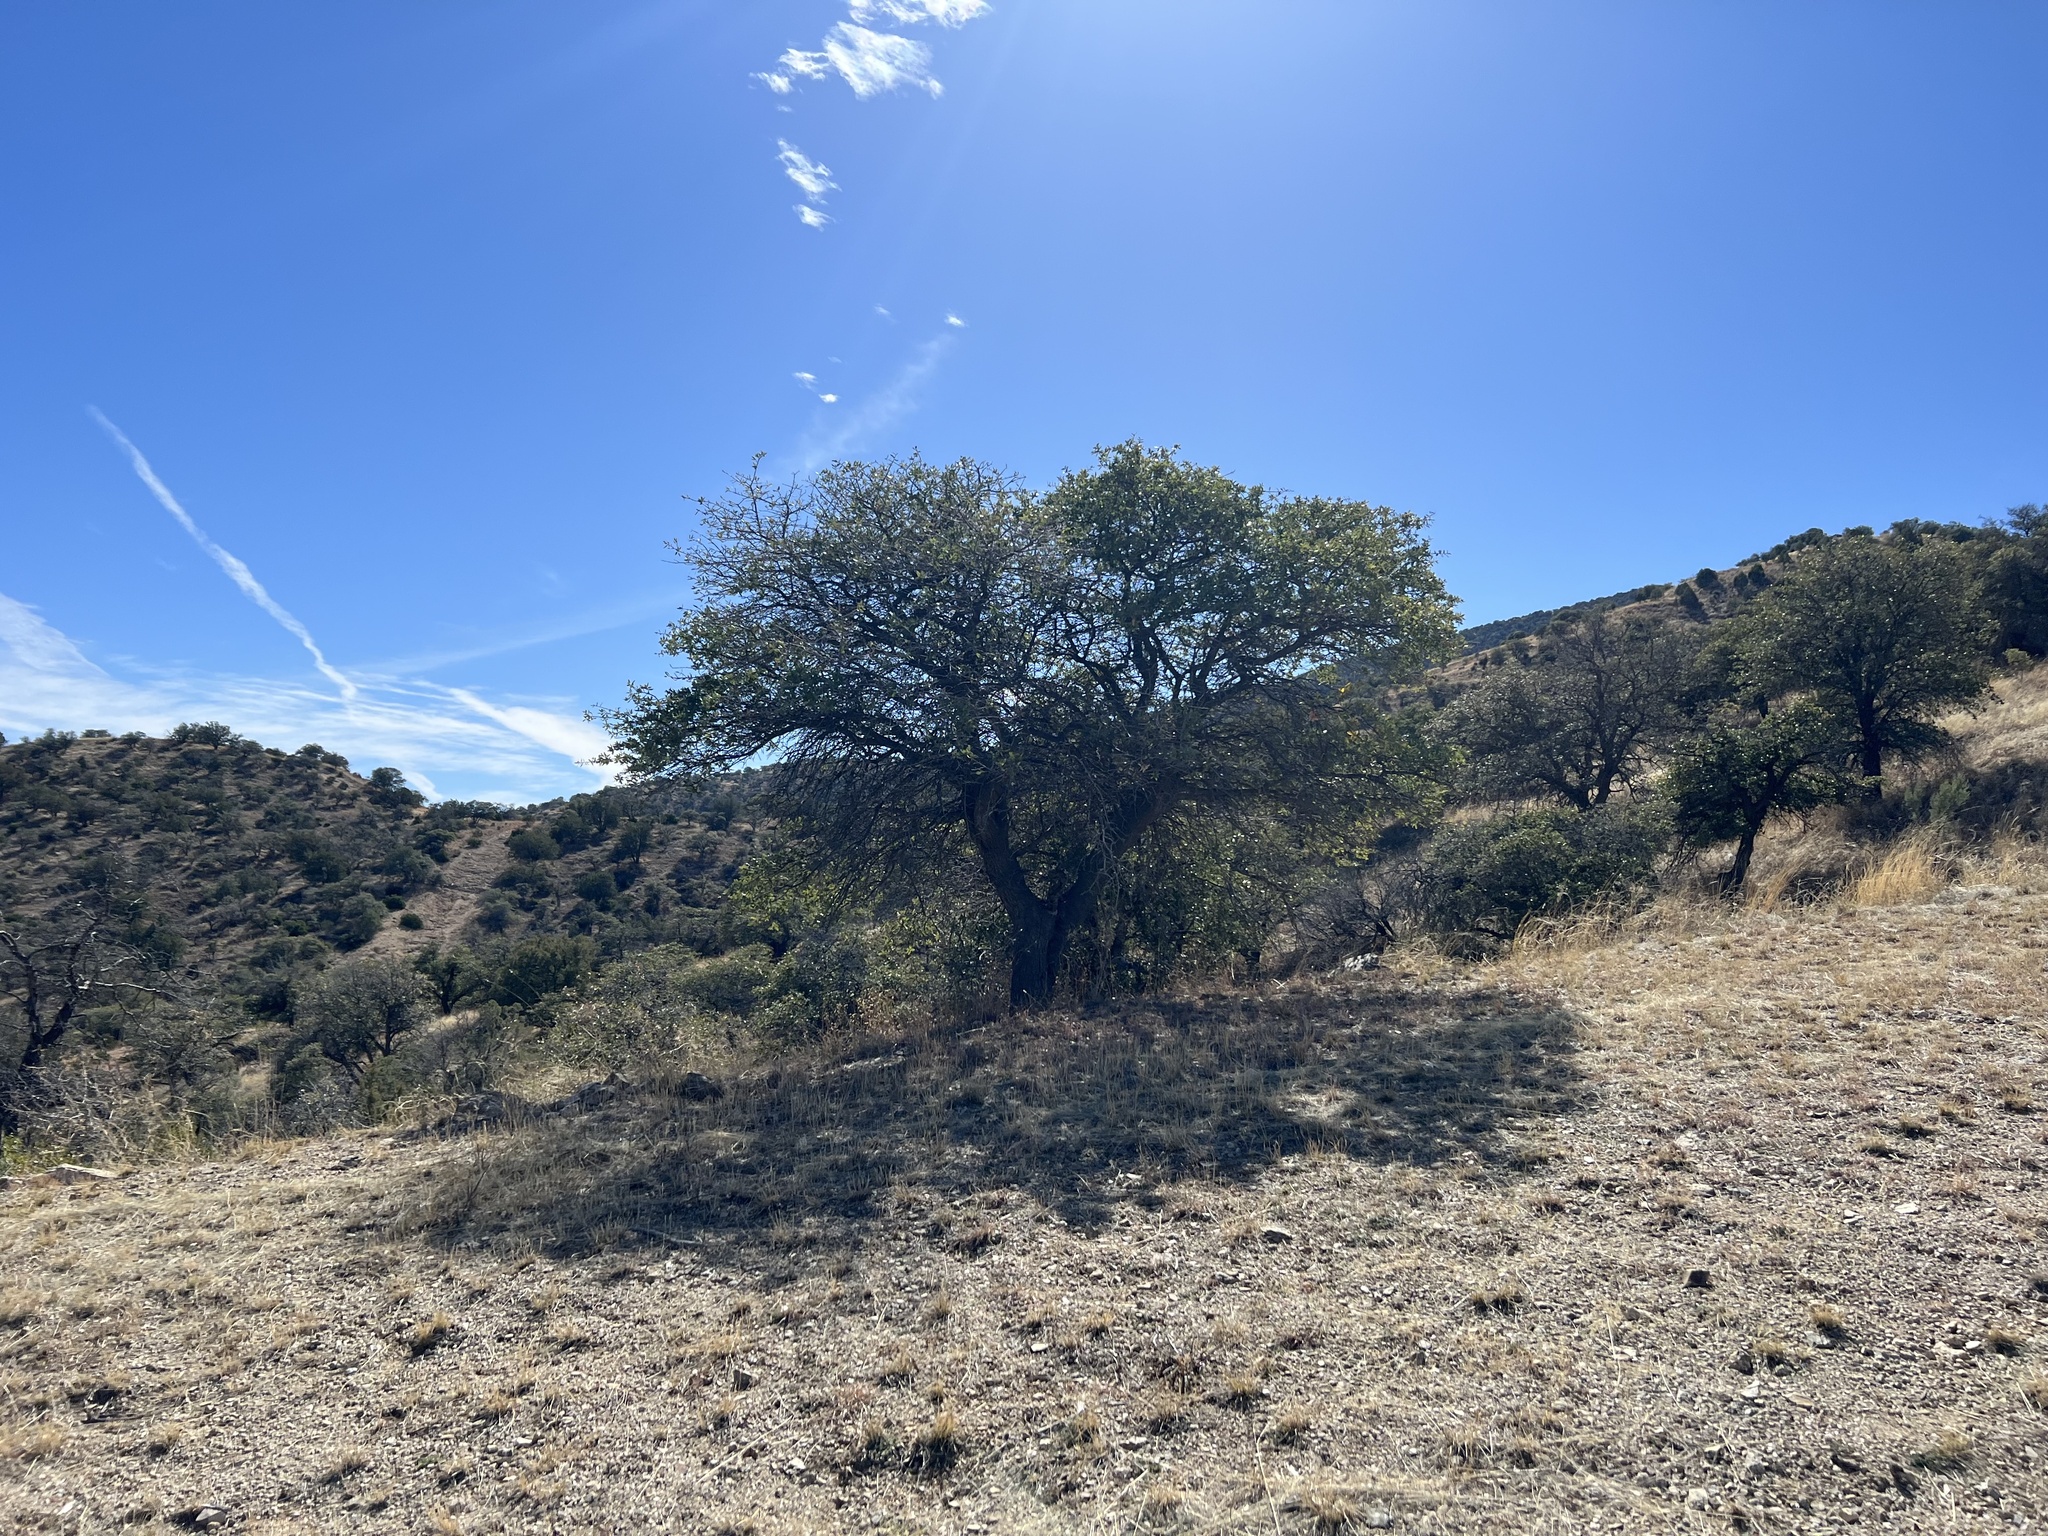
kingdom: Plantae
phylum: Tracheophyta
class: Magnoliopsida
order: Fagales
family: Fagaceae
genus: Quercus
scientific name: Quercus emoryi
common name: Emory oak
